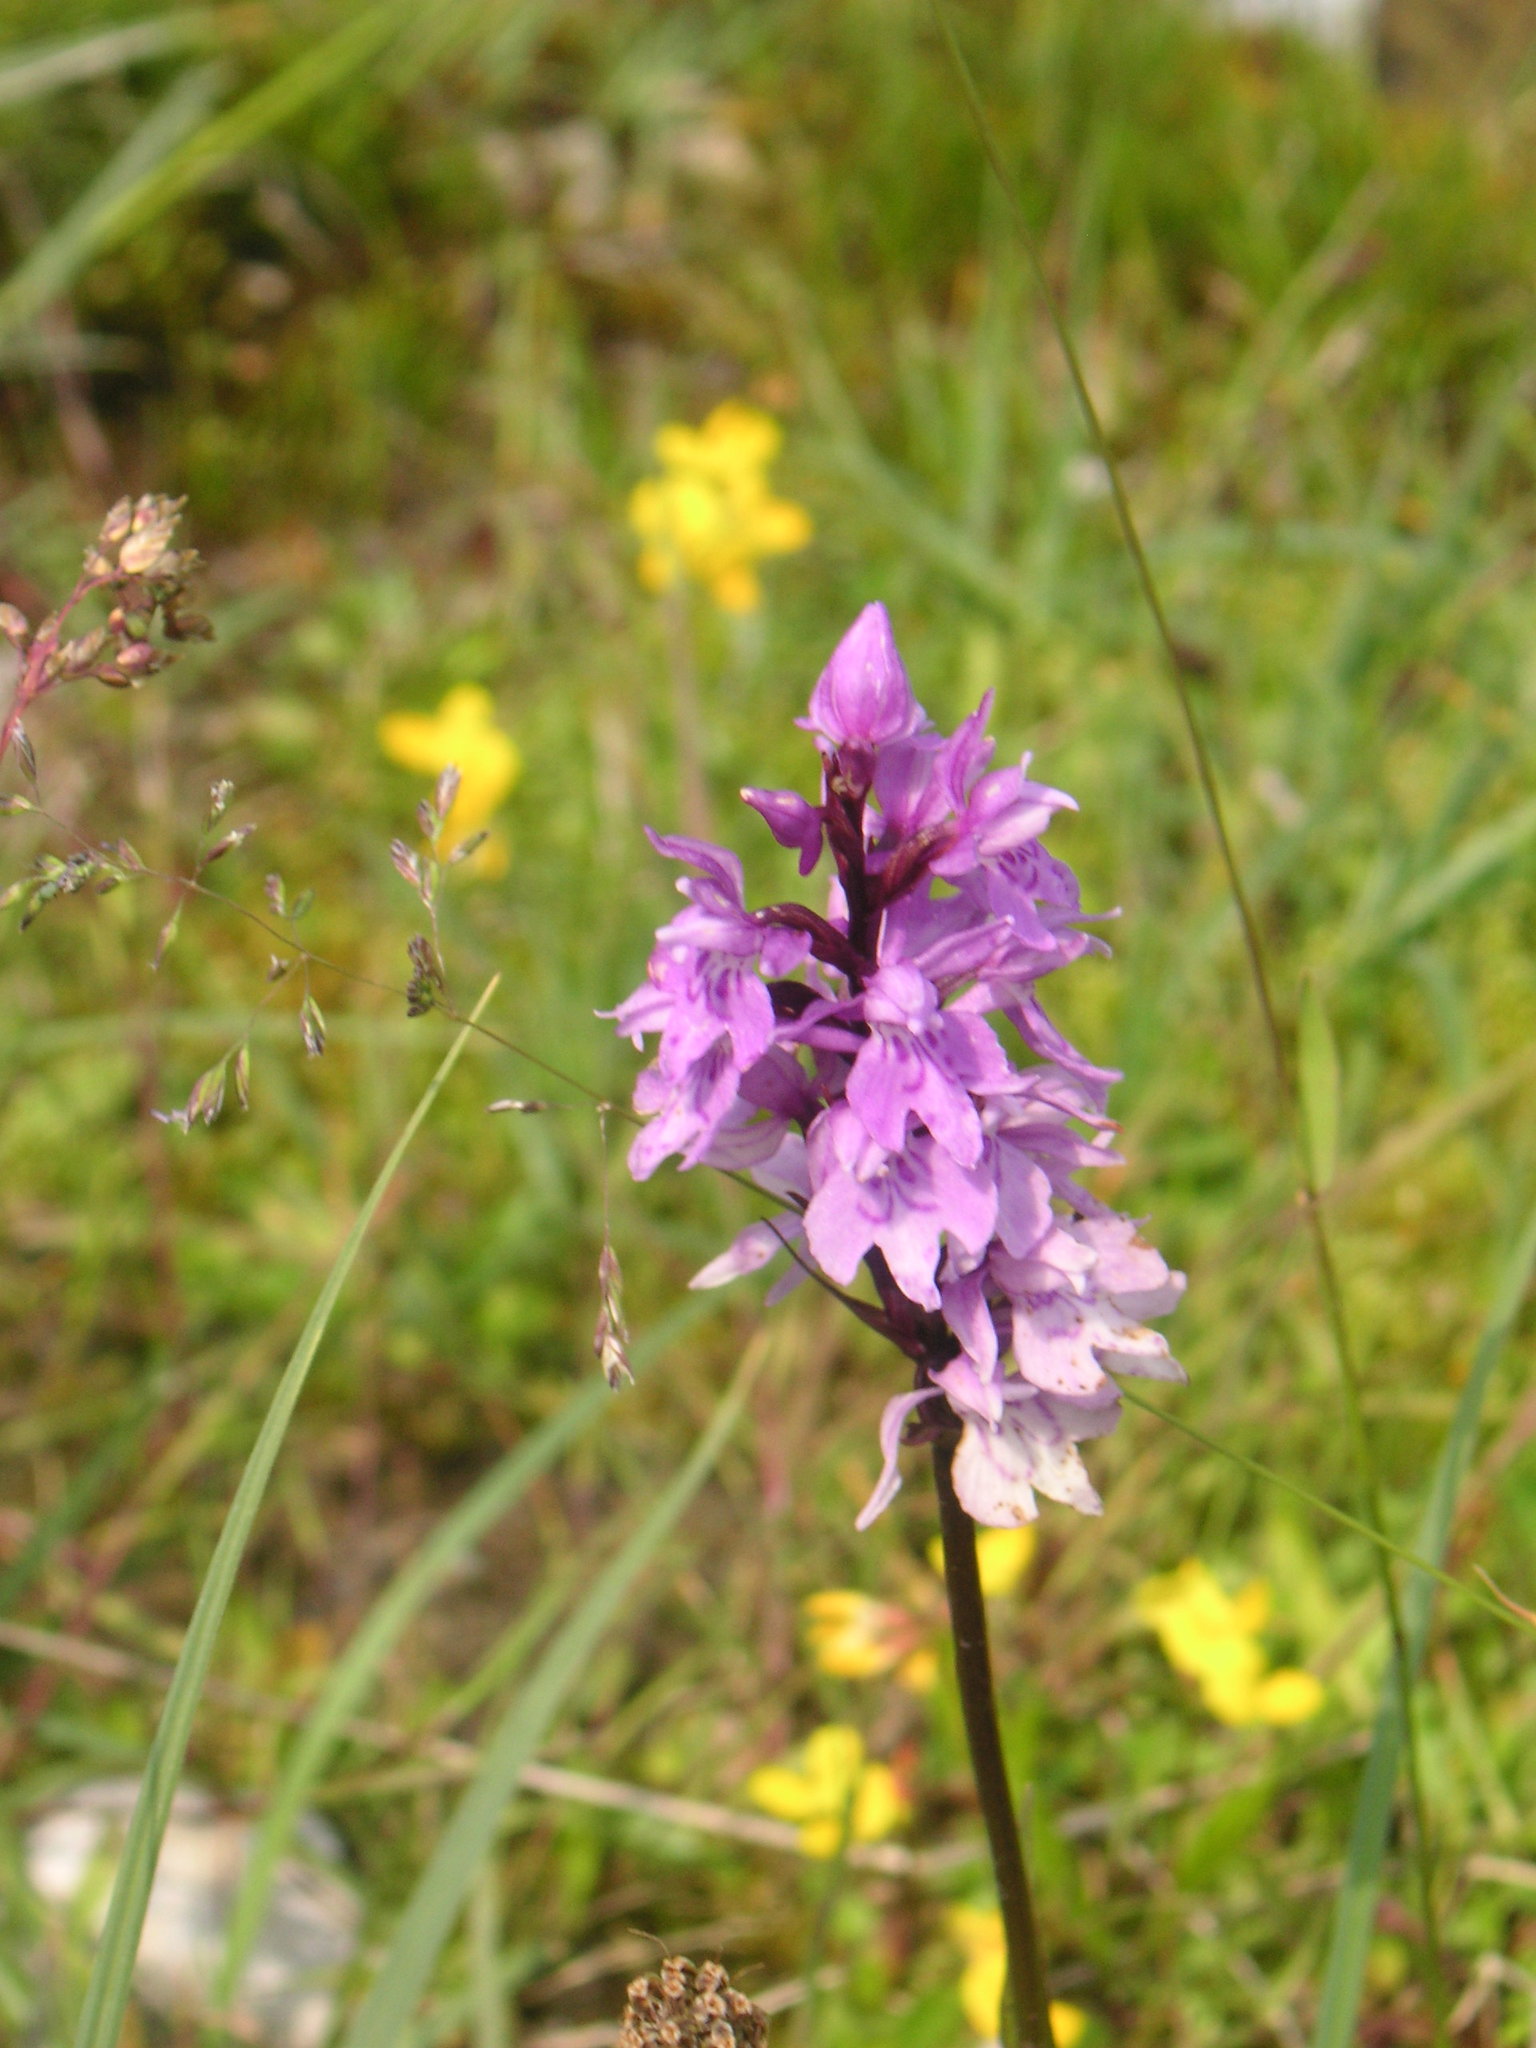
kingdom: Plantae
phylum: Tracheophyta
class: Liliopsida
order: Asparagales
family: Orchidaceae
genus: Dactylorhiza
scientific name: Dactylorhiza maculata
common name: Heath spotted-orchid
